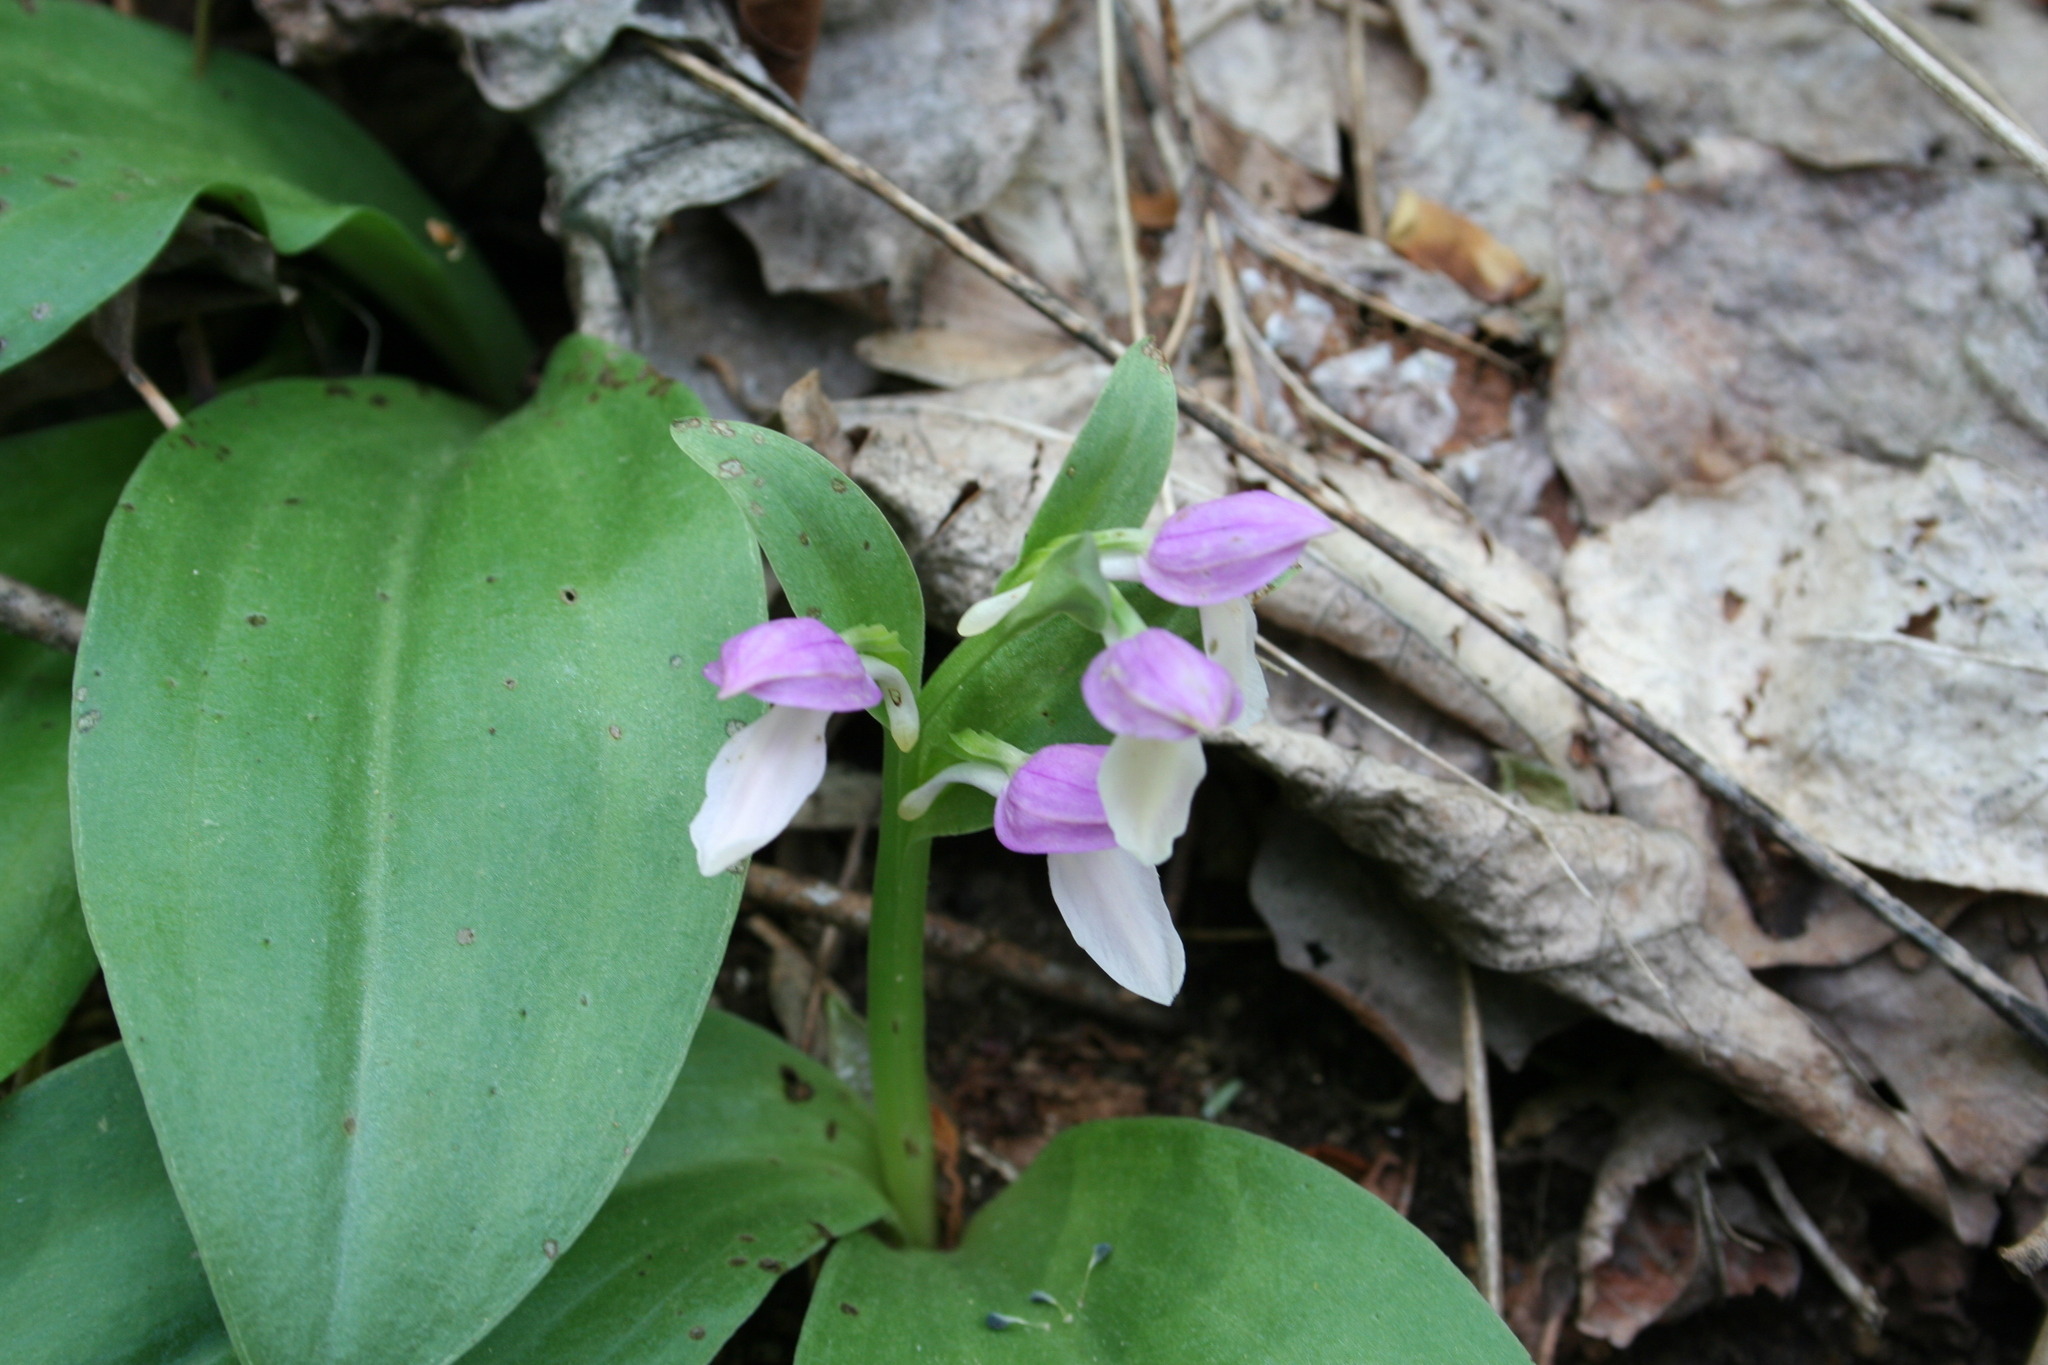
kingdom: Plantae
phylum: Tracheophyta
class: Liliopsida
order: Asparagales
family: Orchidaceae
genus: Galearis
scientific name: Galearis spectabilis
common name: Purple-hooded orchis
